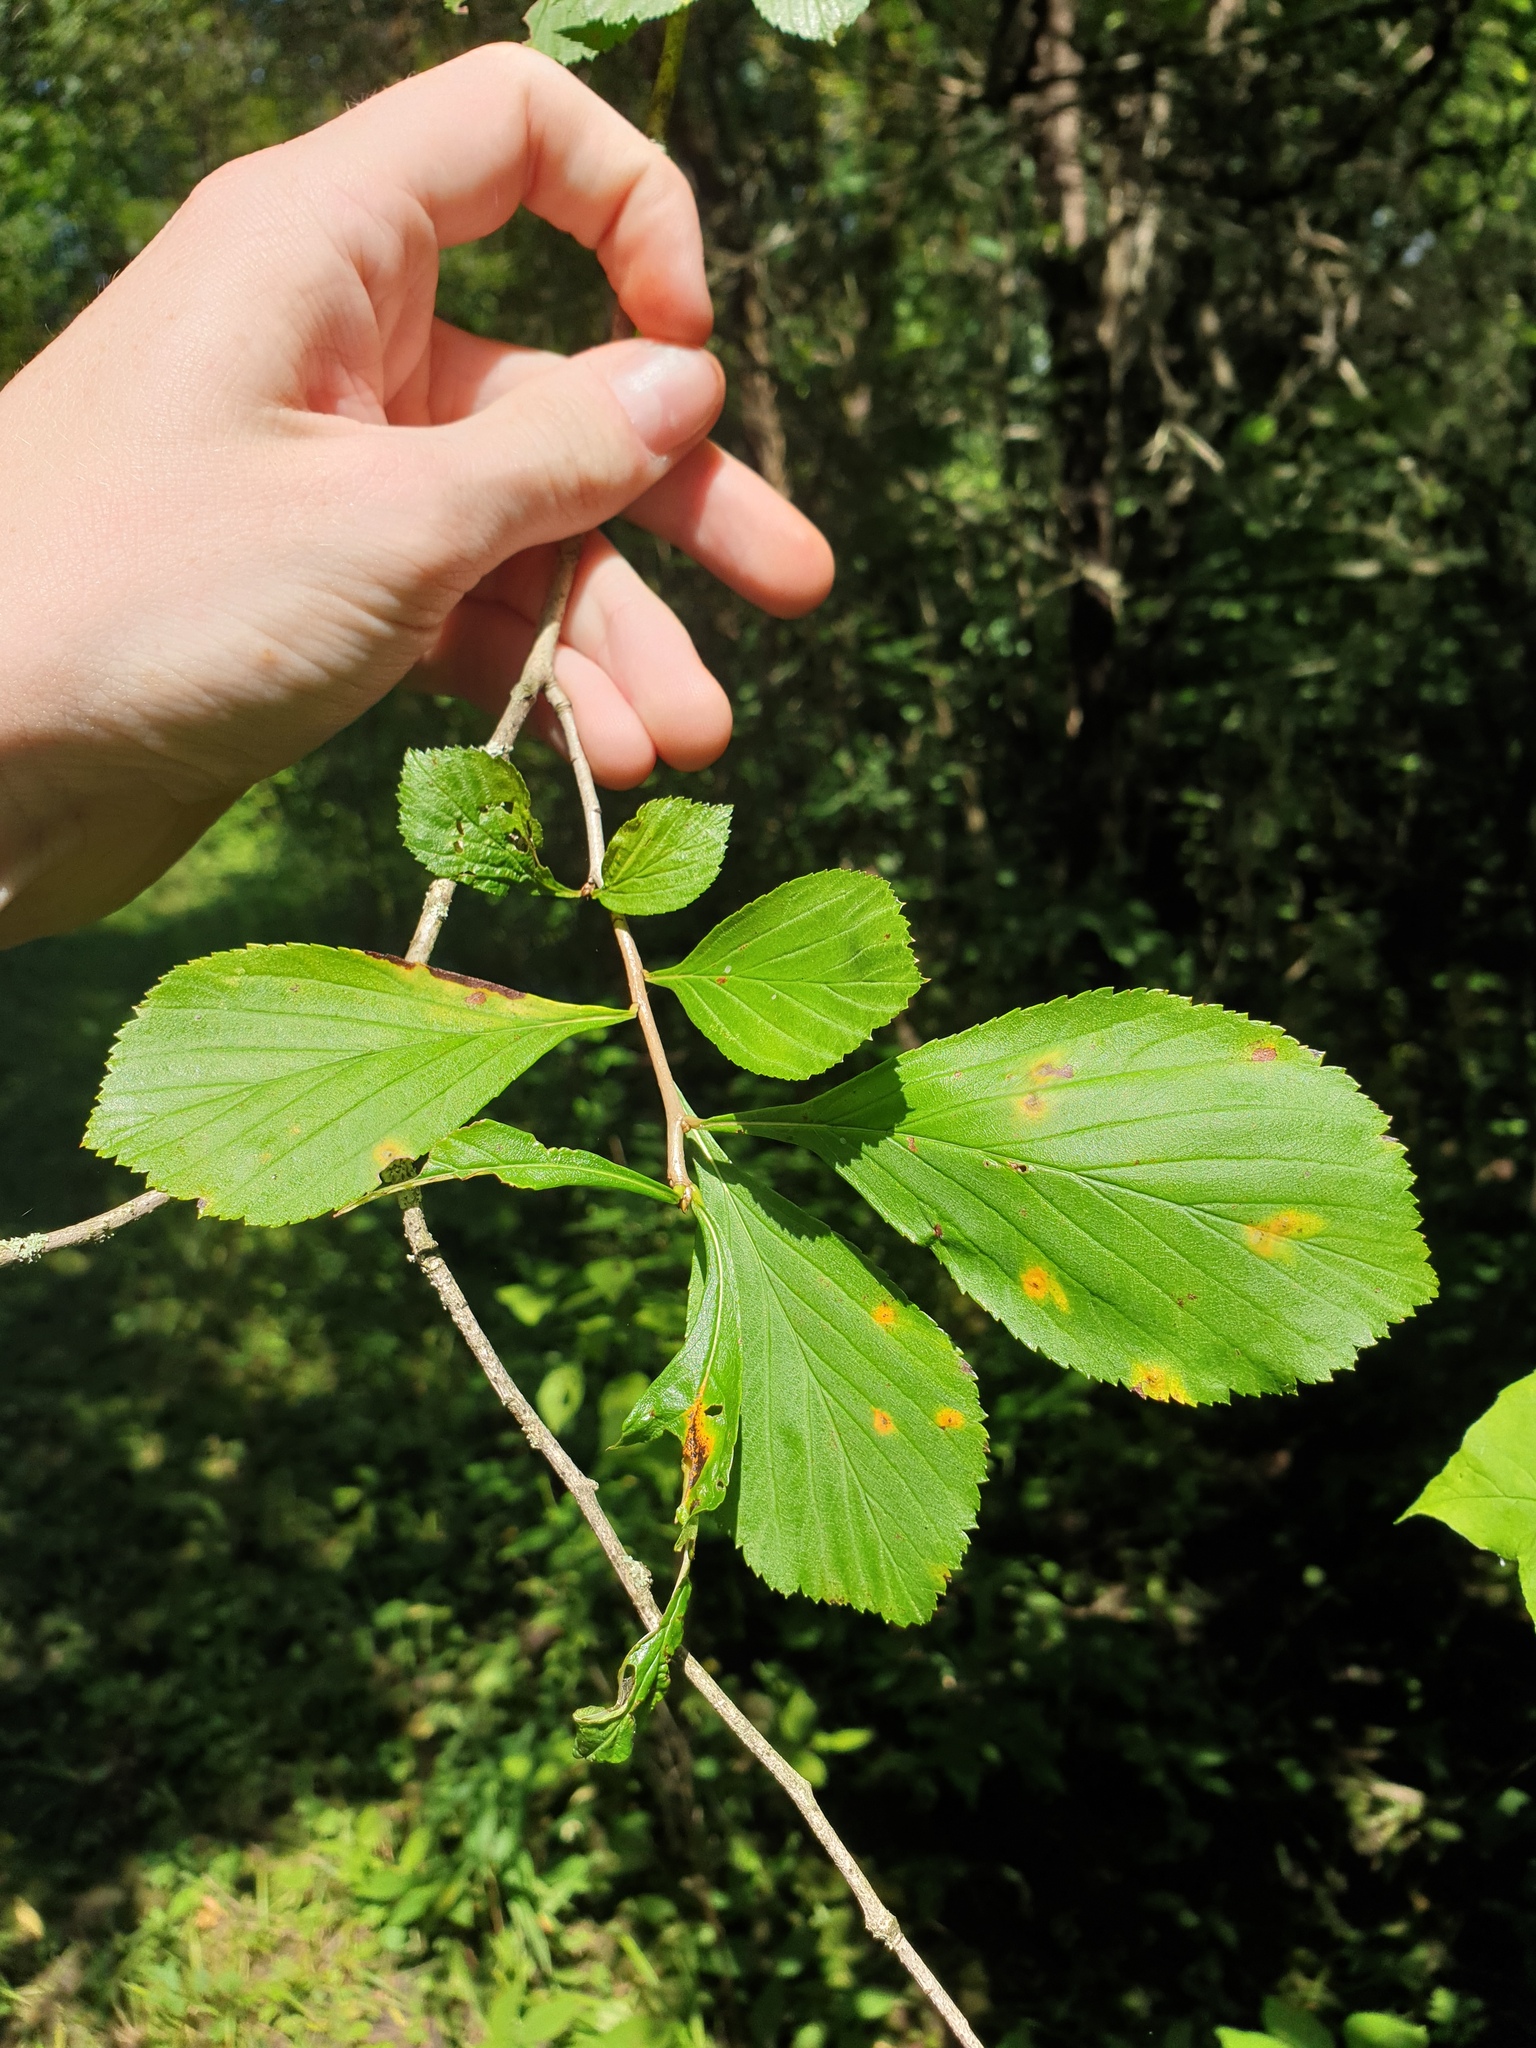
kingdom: Plantae
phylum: Tracheophyta
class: Magnoliopsida
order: Rosales
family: Rosaceae
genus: Crataegus
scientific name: Crataegus punctata
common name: Dotted hawthorn
